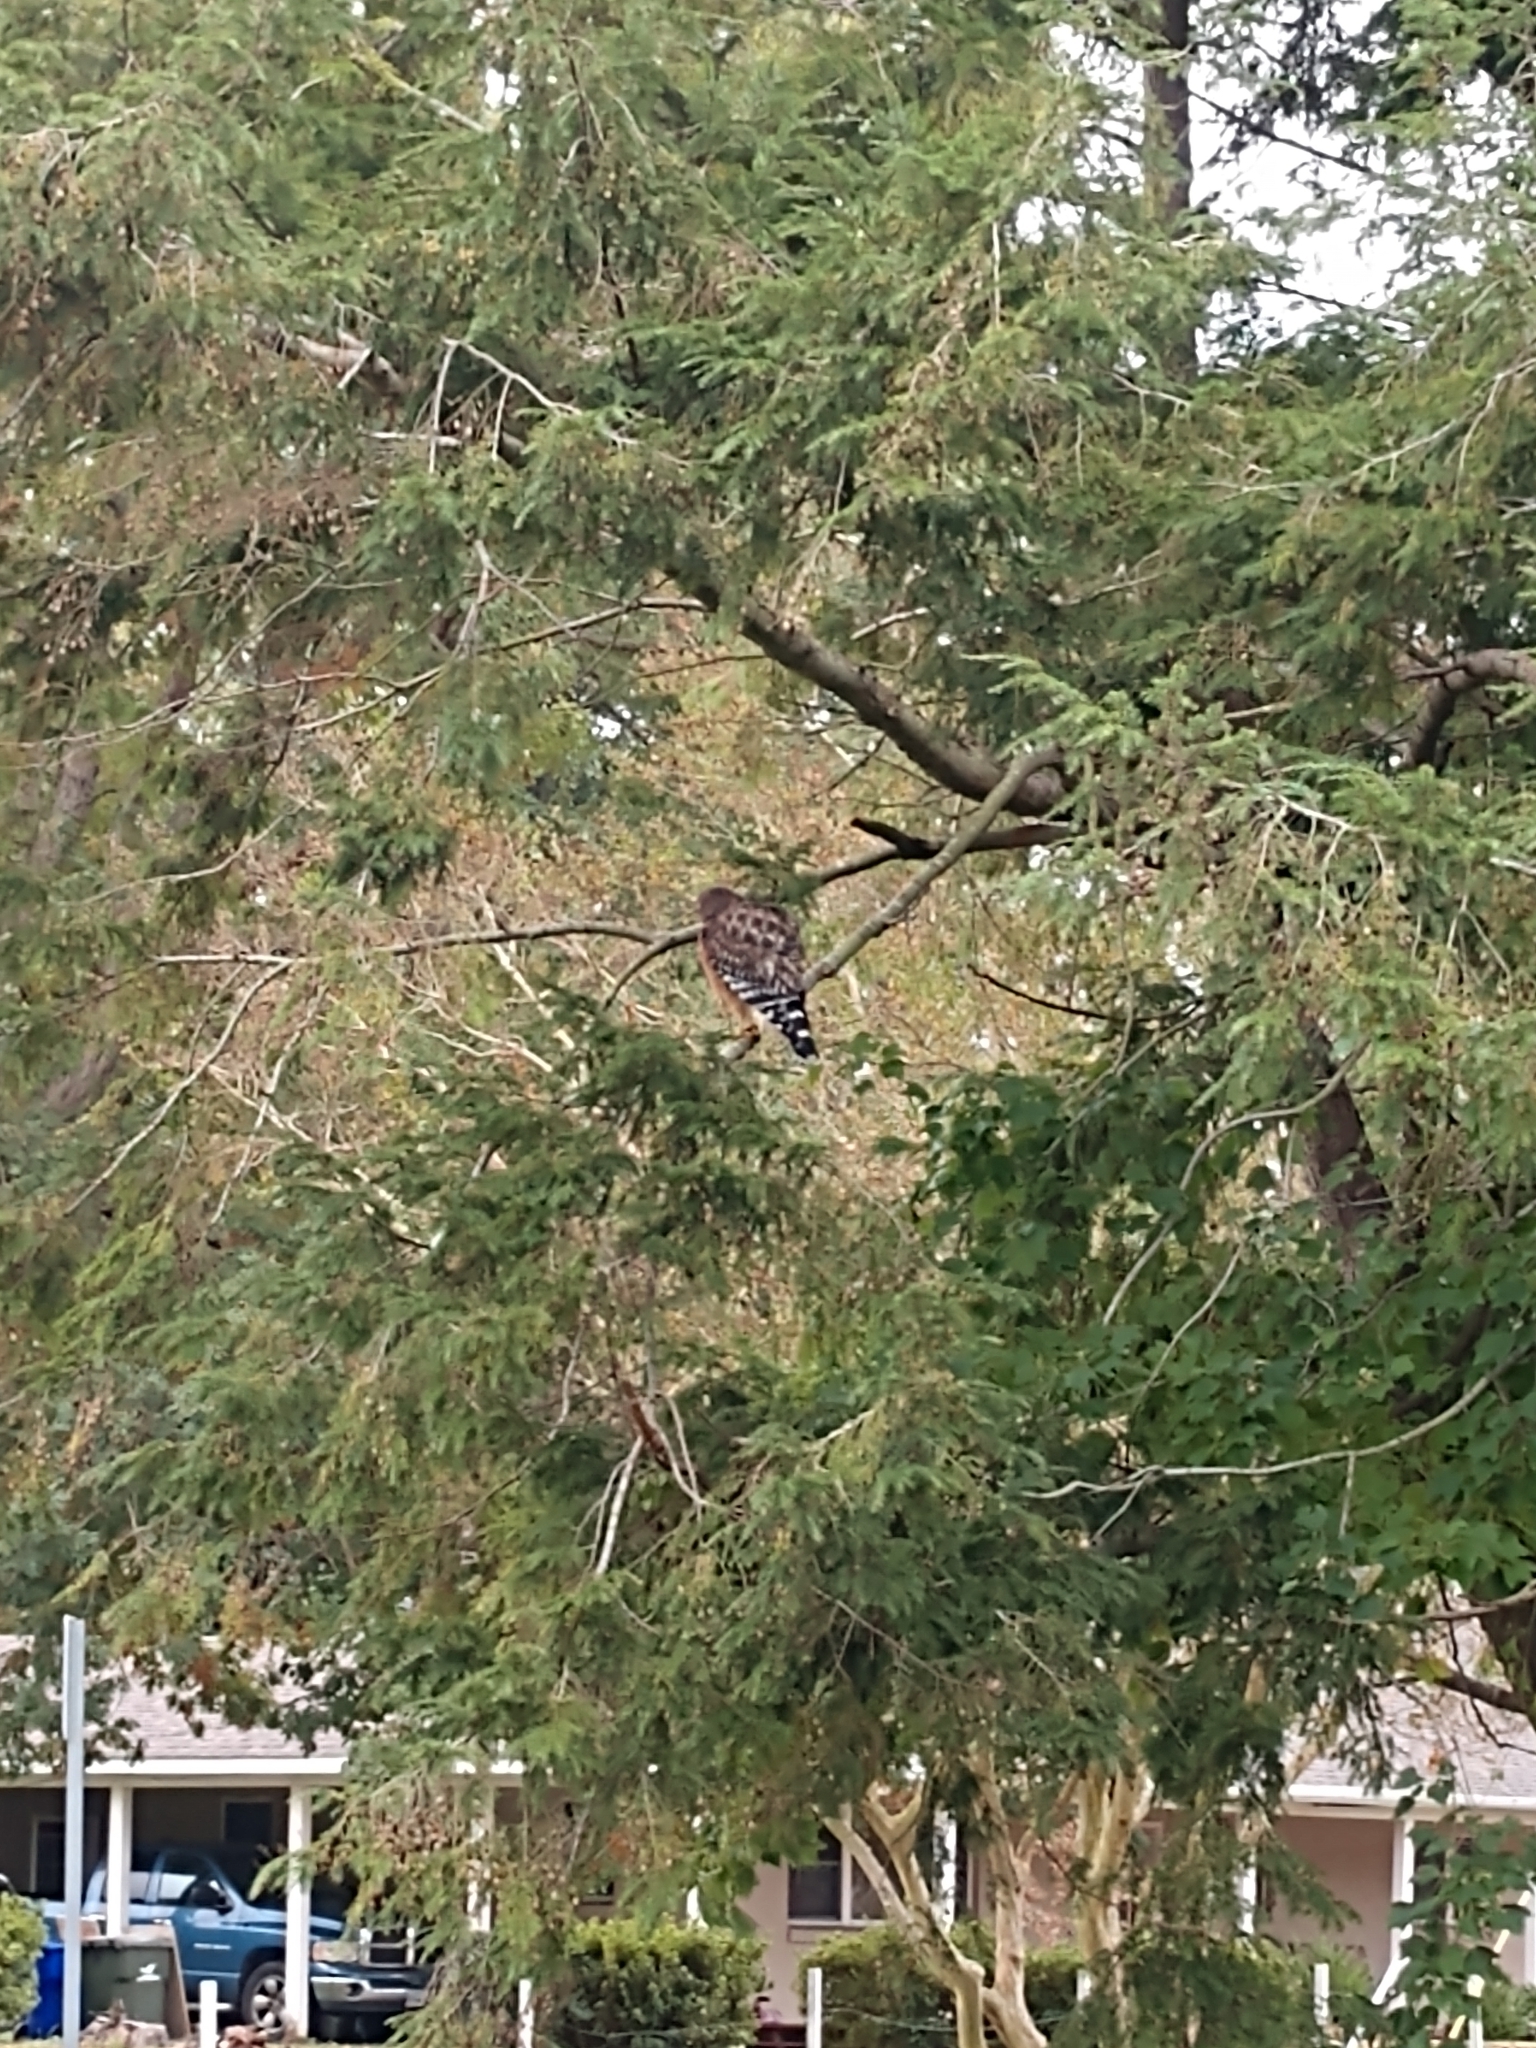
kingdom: Animalia
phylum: Chordata
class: Aves
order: Accipitriformes
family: Accipitridae
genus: Buteo
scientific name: Buteo lineatus
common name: Red-shouldered hawk
